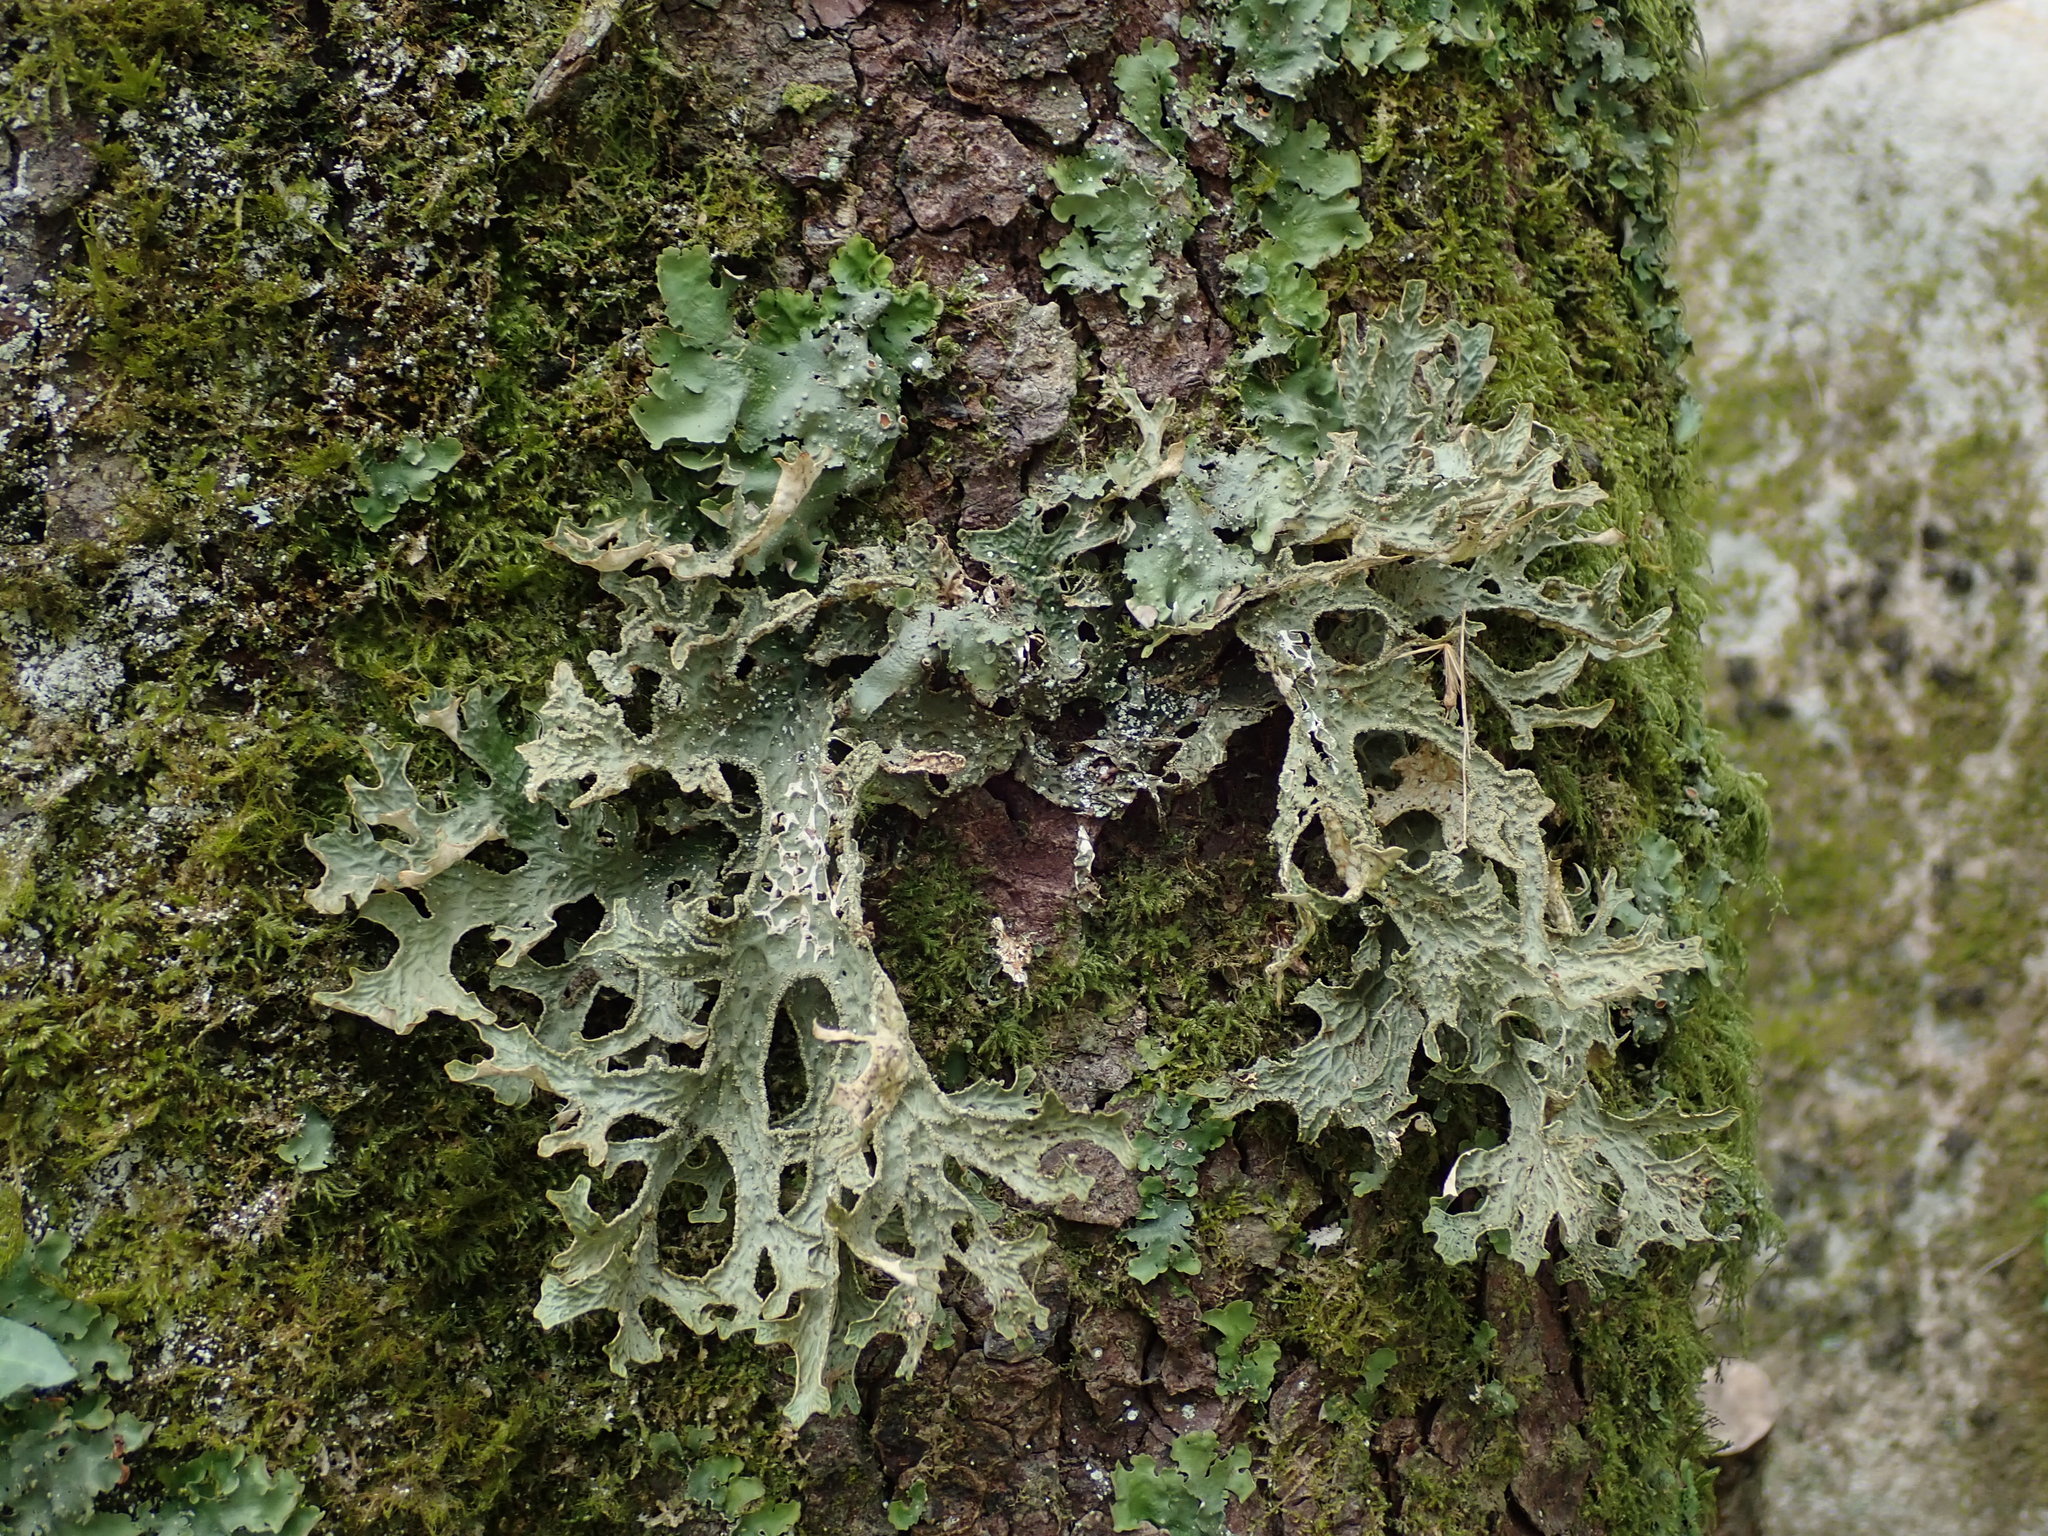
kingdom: Fungi
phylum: Ascomycota
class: Lecanoromycetes
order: Peltigerales
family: Lobariaceae
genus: Lobaria
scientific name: Lobaria pulmonaria
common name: Lungwort
